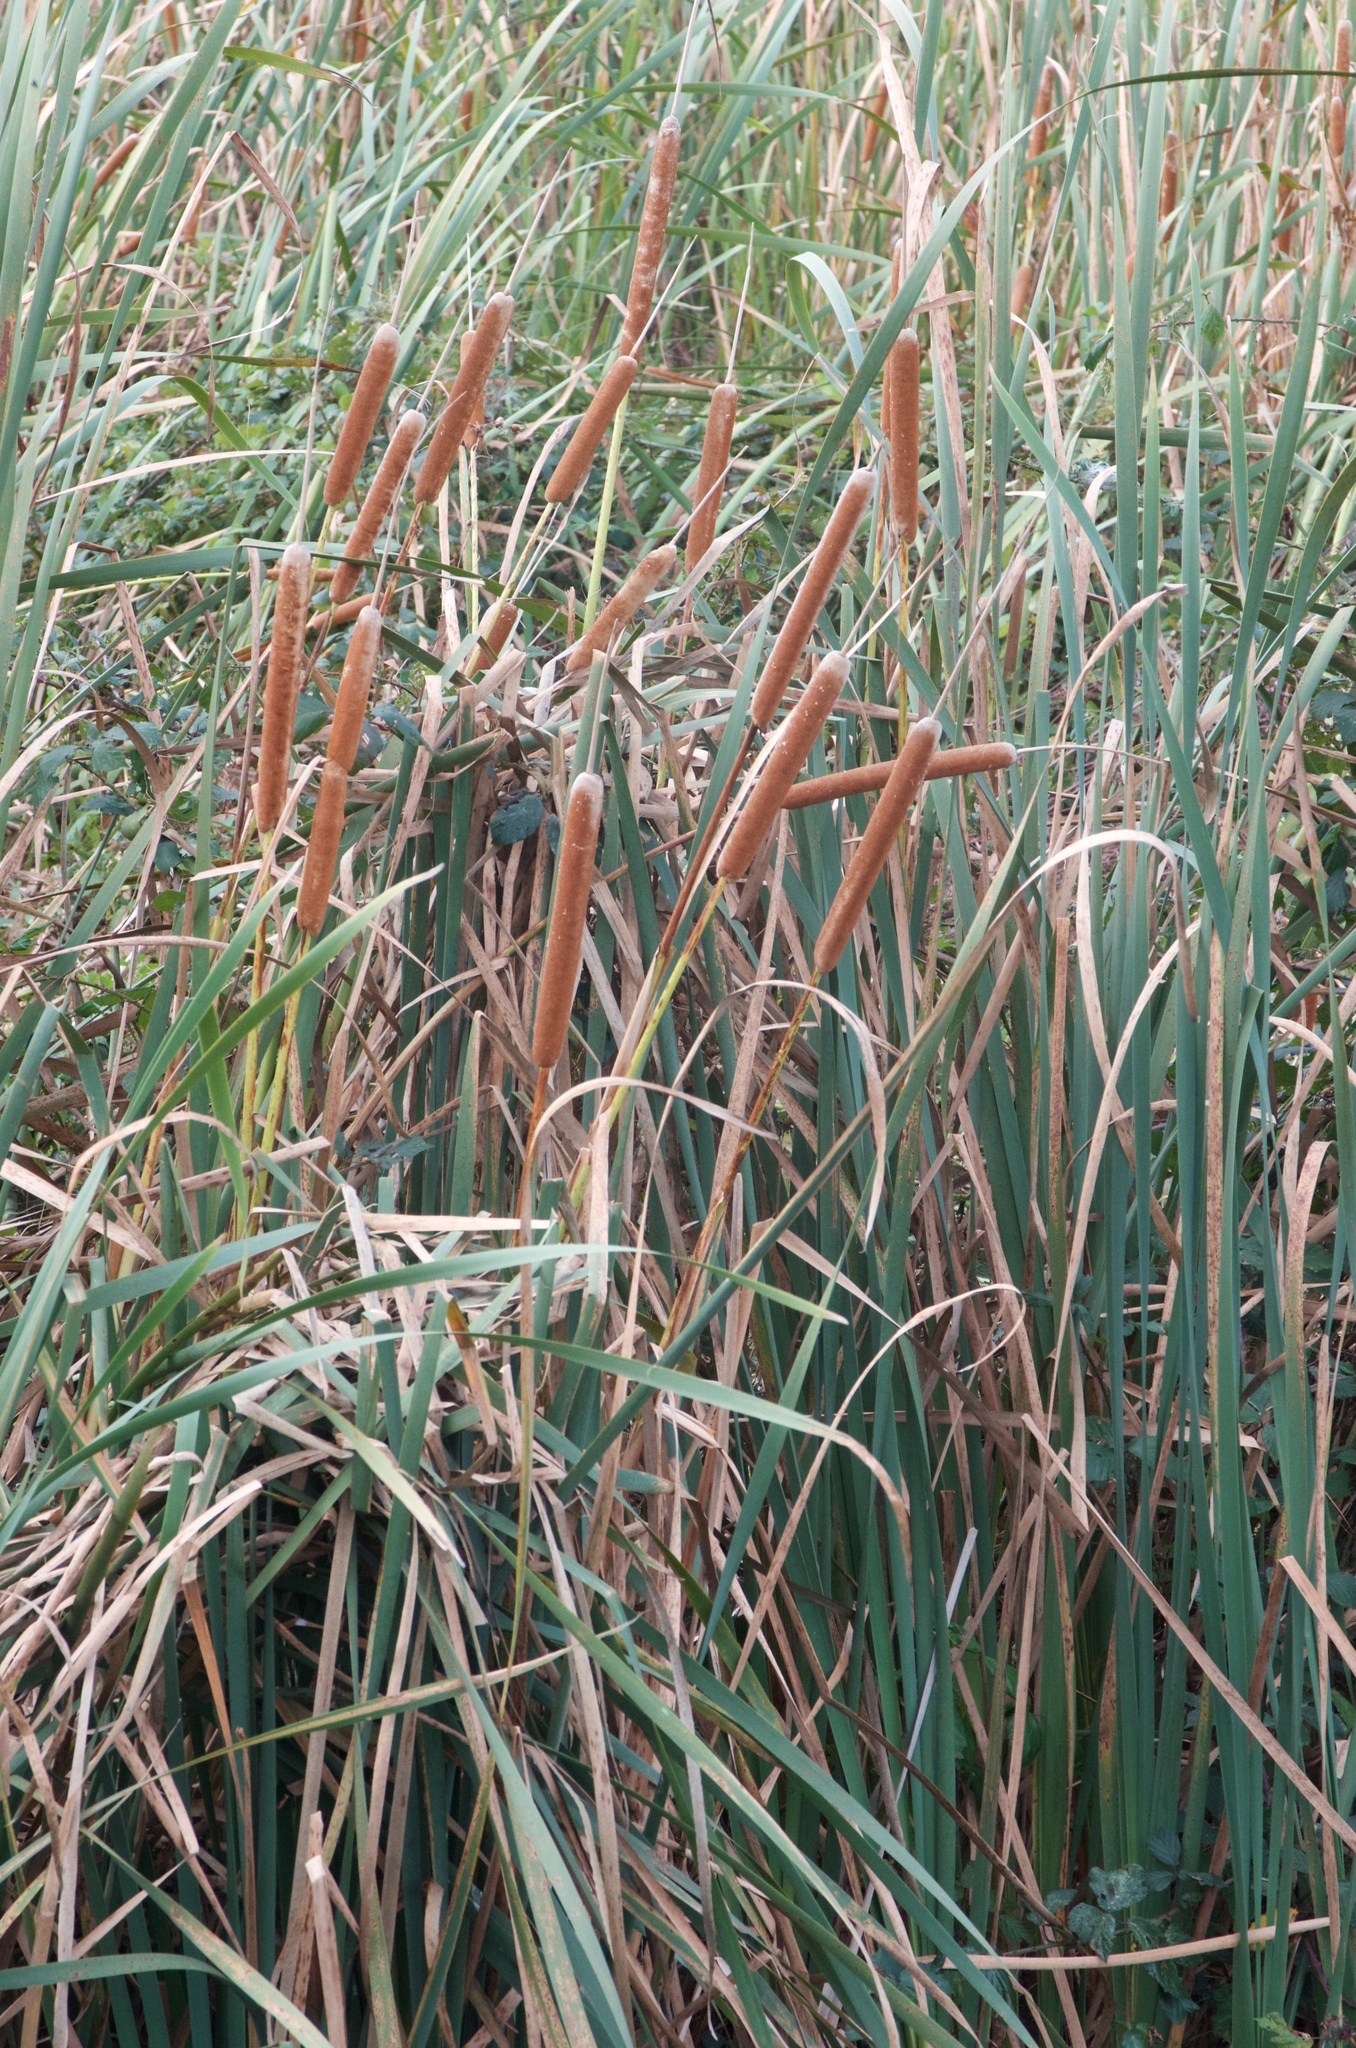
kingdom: Plantae
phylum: Tracheophyta
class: Liliopsida
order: Poales
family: Typhaceae
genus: Typha
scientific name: Typha orientalis
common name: Bullrush
